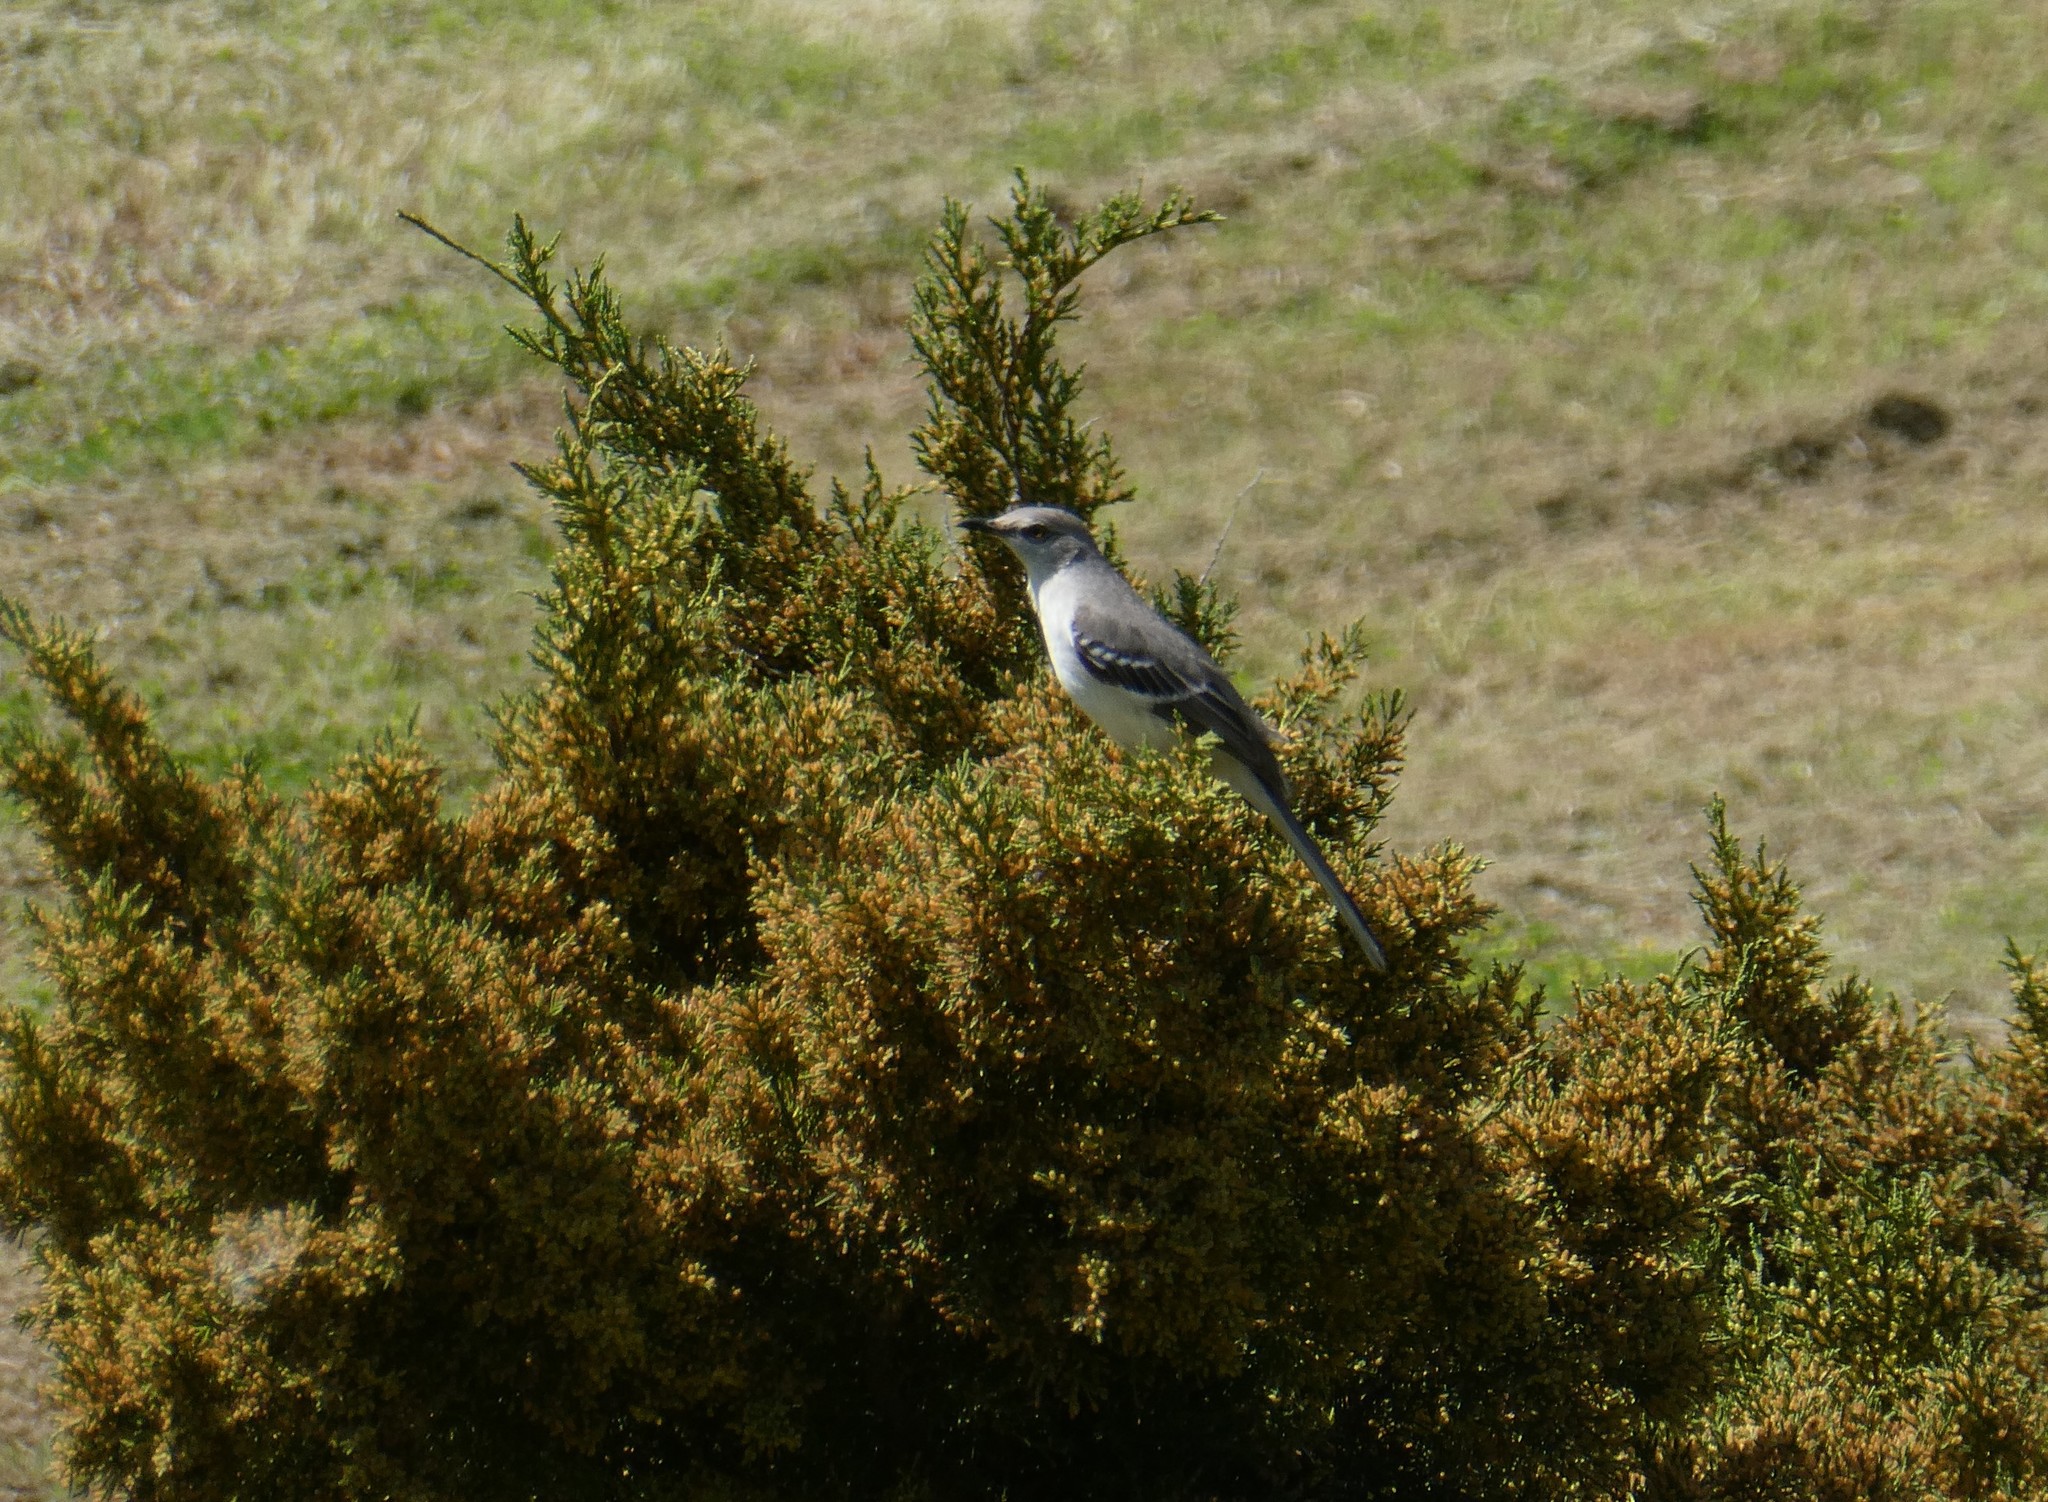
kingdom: Animalia
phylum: Chordata
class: Aves
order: Passeriformes
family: Mimidae
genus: Mimus
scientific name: Mimus polyglottos
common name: Northern mockingbird
